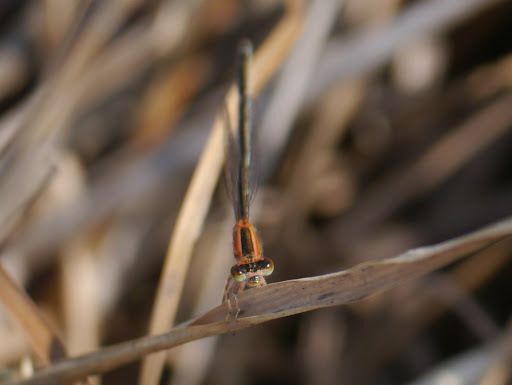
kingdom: Animalia
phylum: Arthropoda
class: Insecta
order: Odonata
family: Coenagrionidae
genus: Ischnura
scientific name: Ischnura senegalensis
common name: Tropical bluetail
